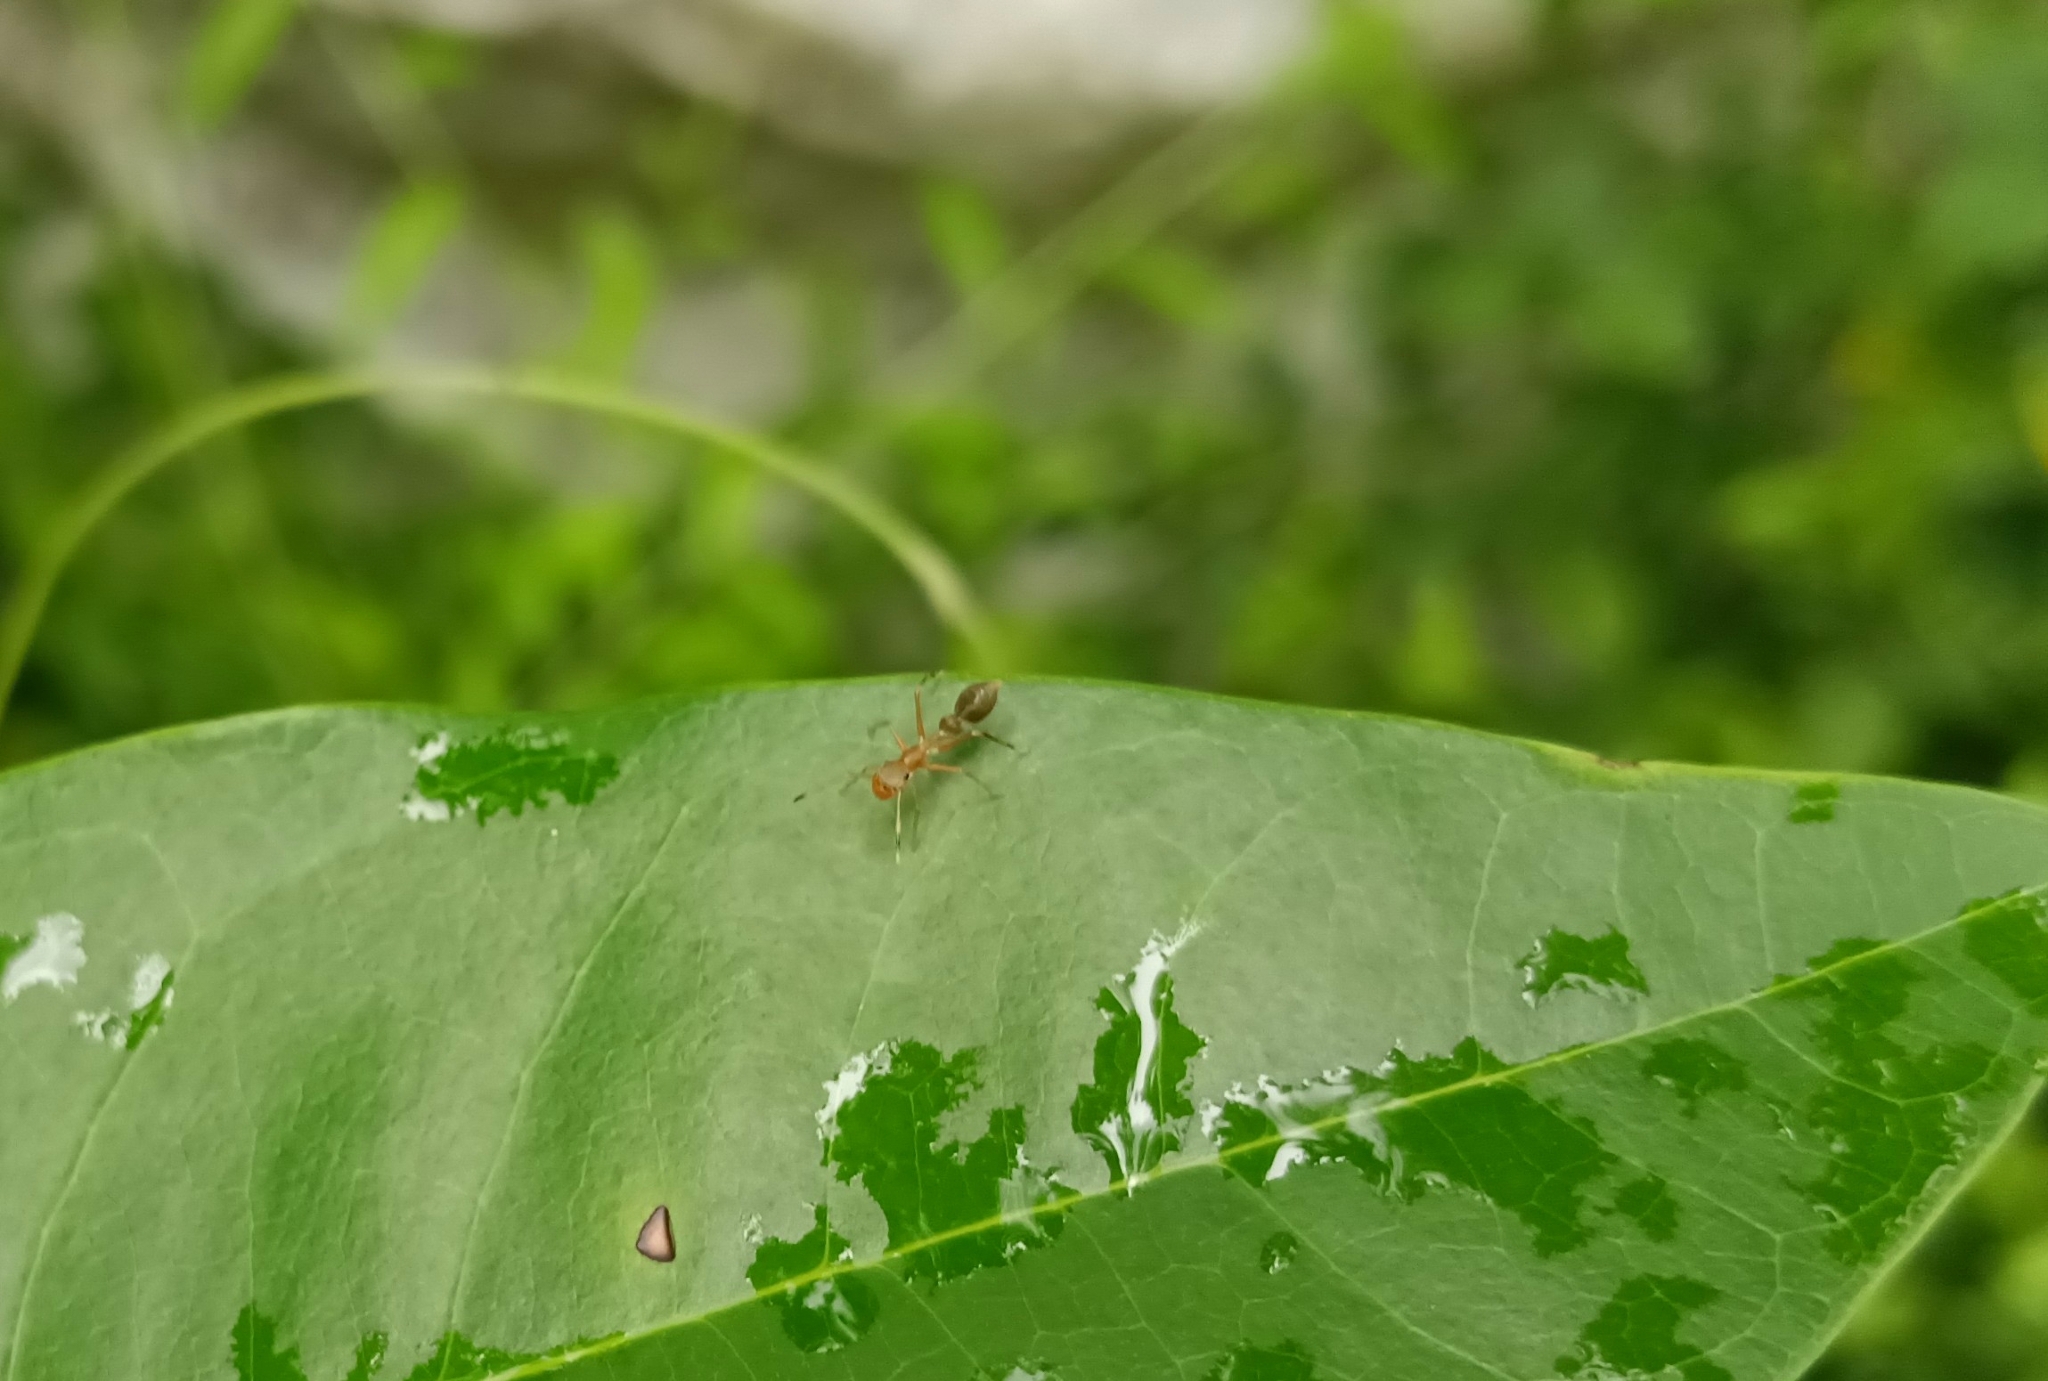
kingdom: Animalia
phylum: Arthropoda
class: Arachnida
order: Araneae
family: Salticidae
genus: Myrmaplata
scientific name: Myrmaplata plataleoides
